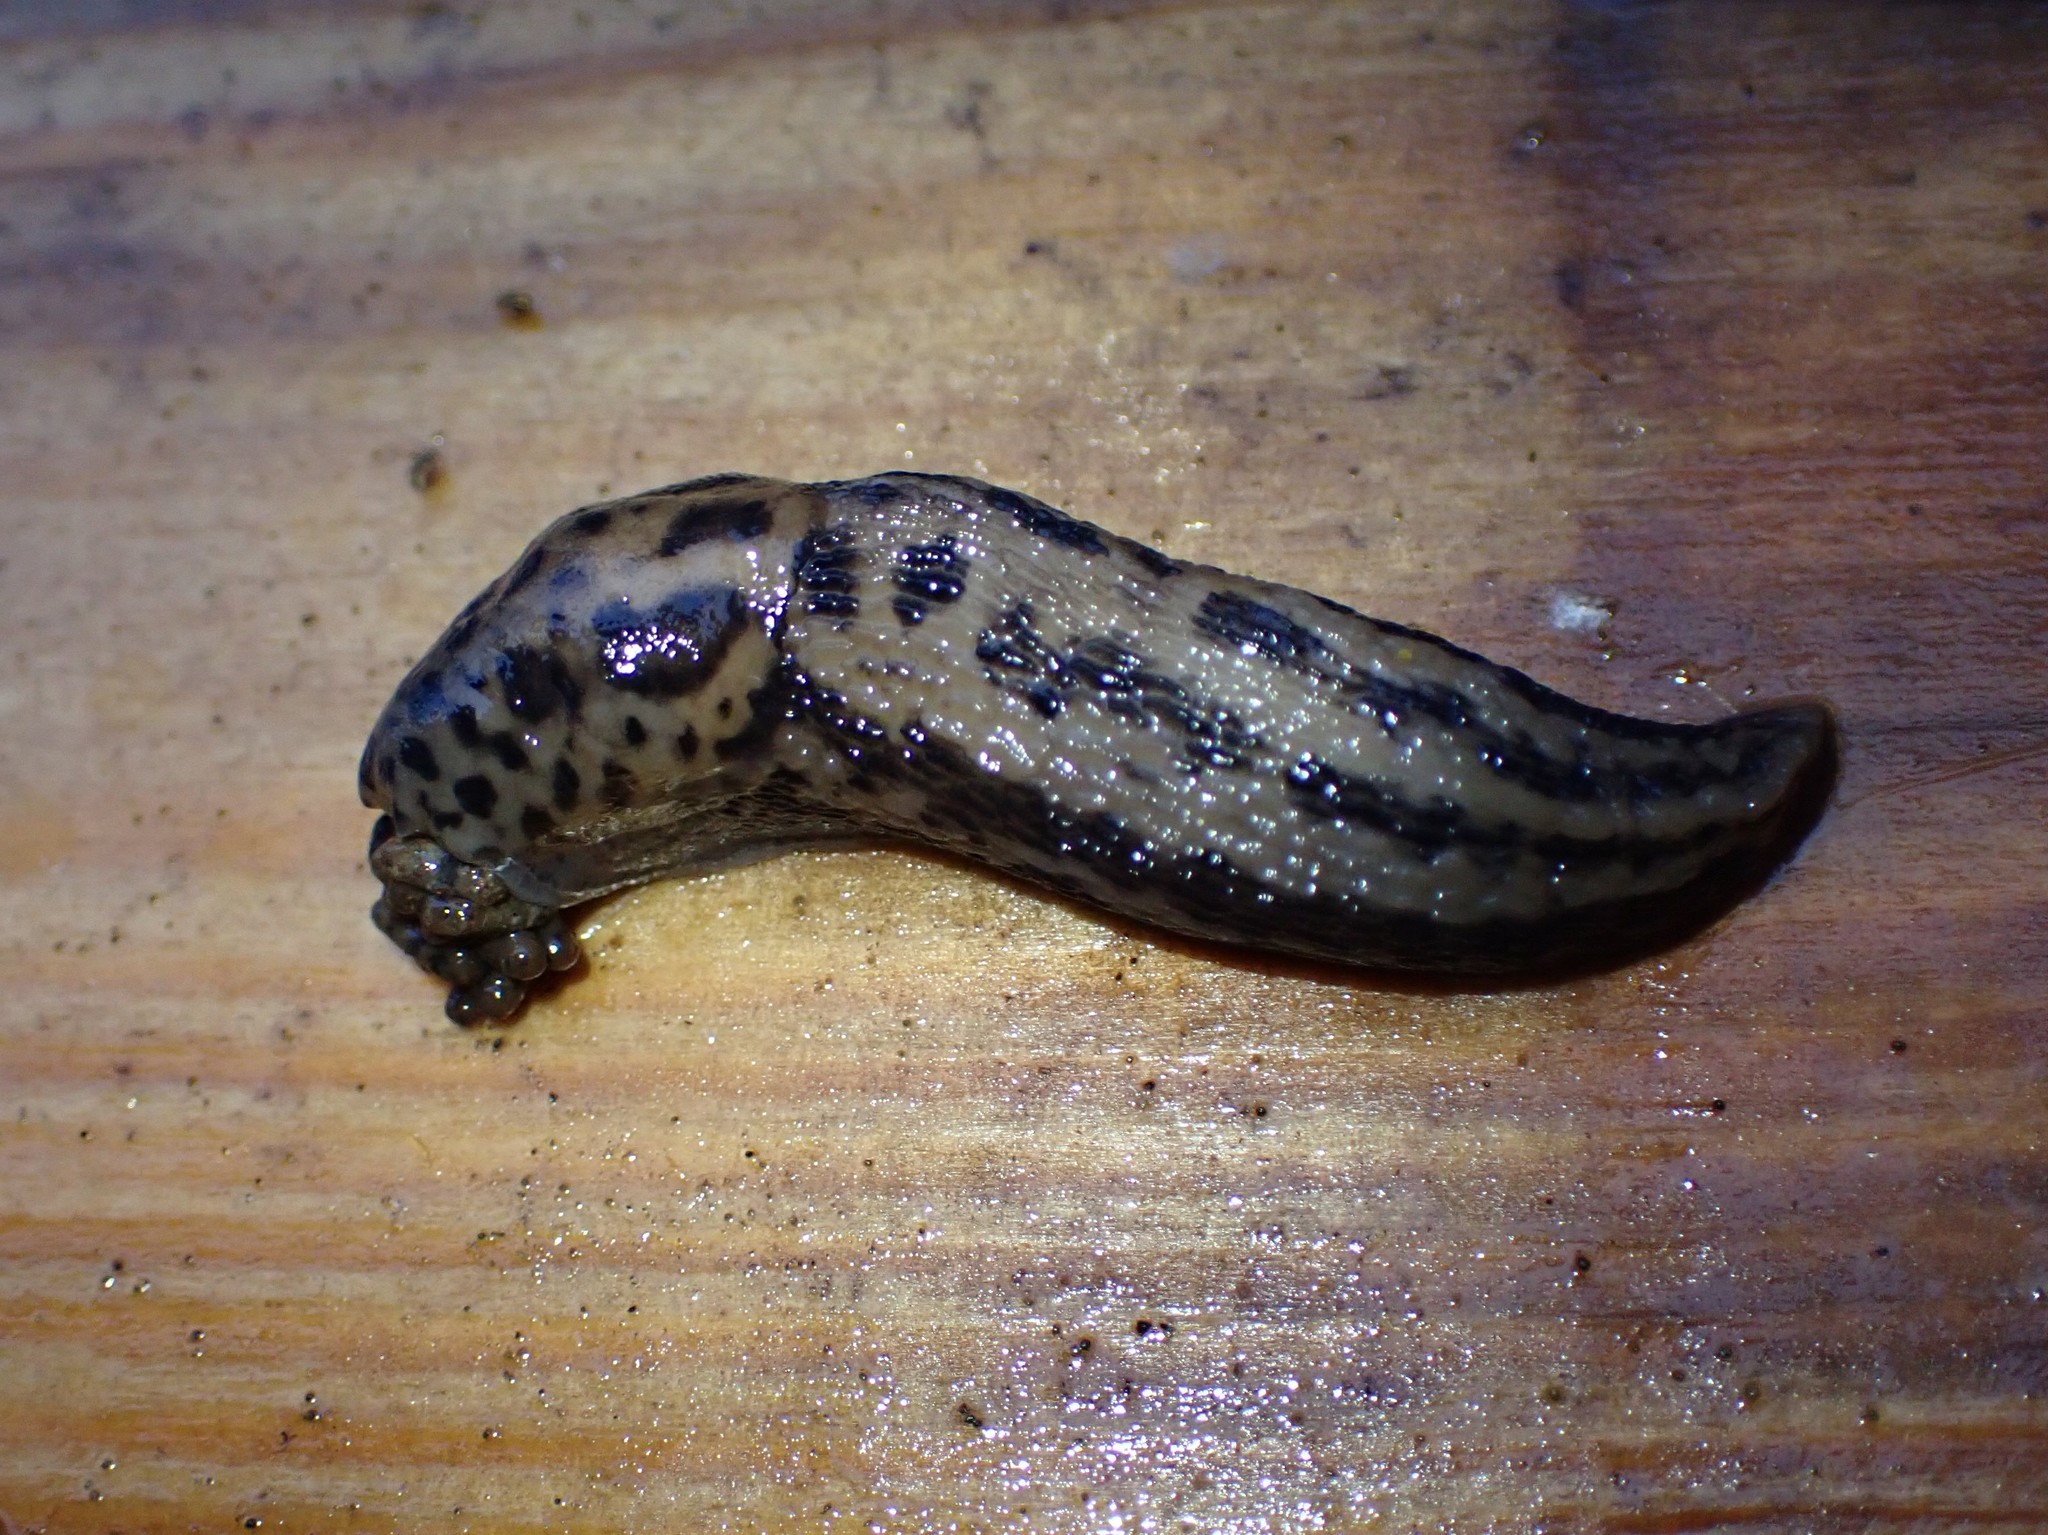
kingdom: Animalia
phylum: Mollusca
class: Gastropoda
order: Stylommatophora
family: Limacidae
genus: Limax
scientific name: Limax maximus
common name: Great grey slug
